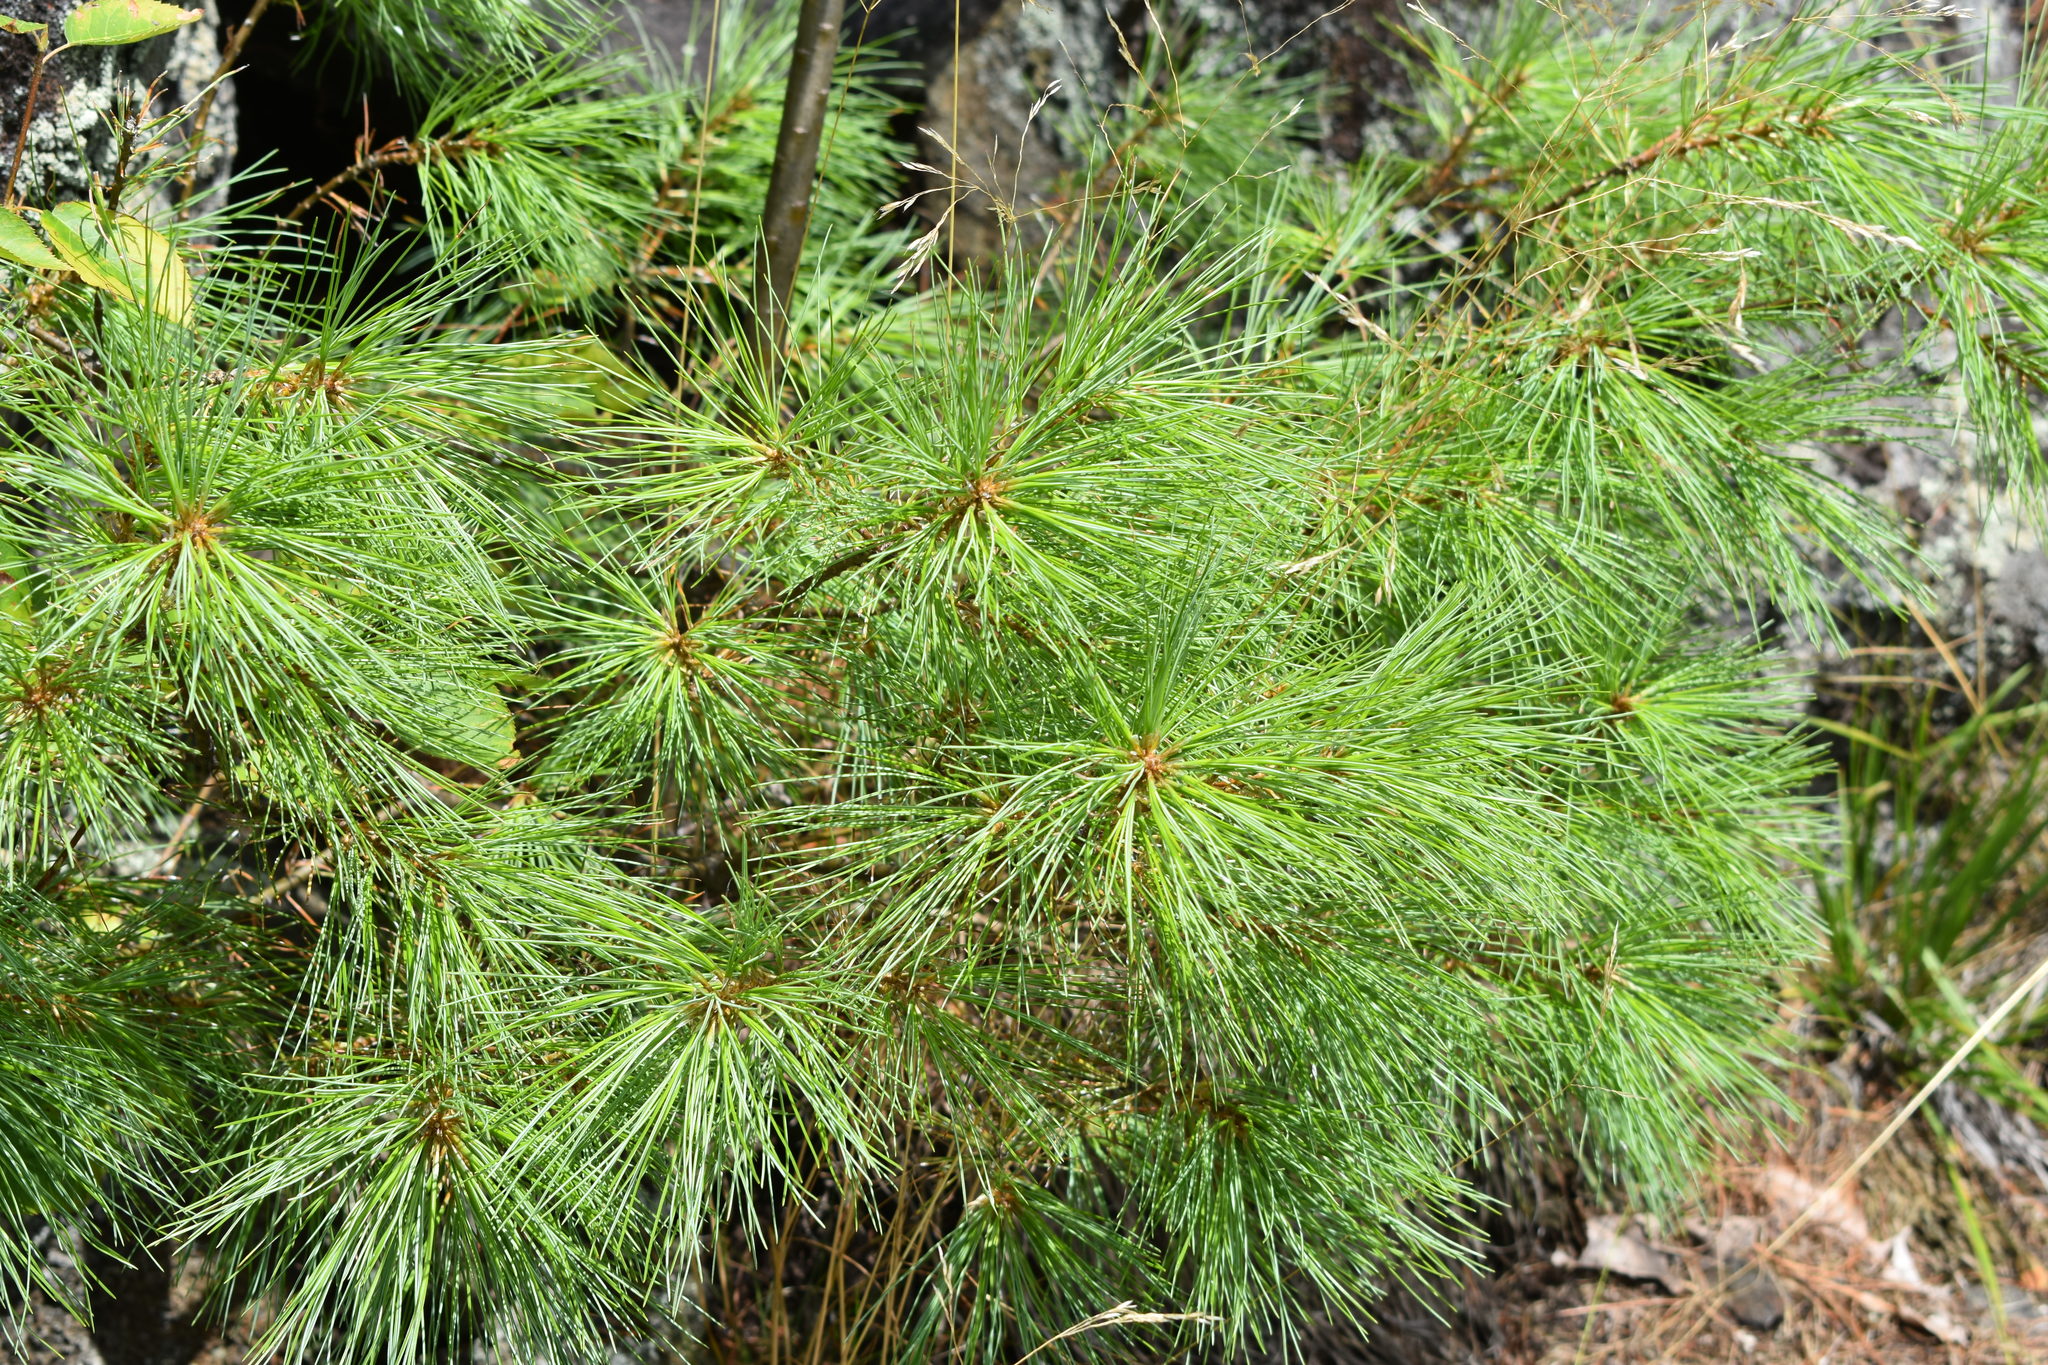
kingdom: Plantae
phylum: Tracheophyta
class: Pinopsida
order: Pinales
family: Pinaceae
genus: Pinus
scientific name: Pinus strobus
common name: Weymouth pine
